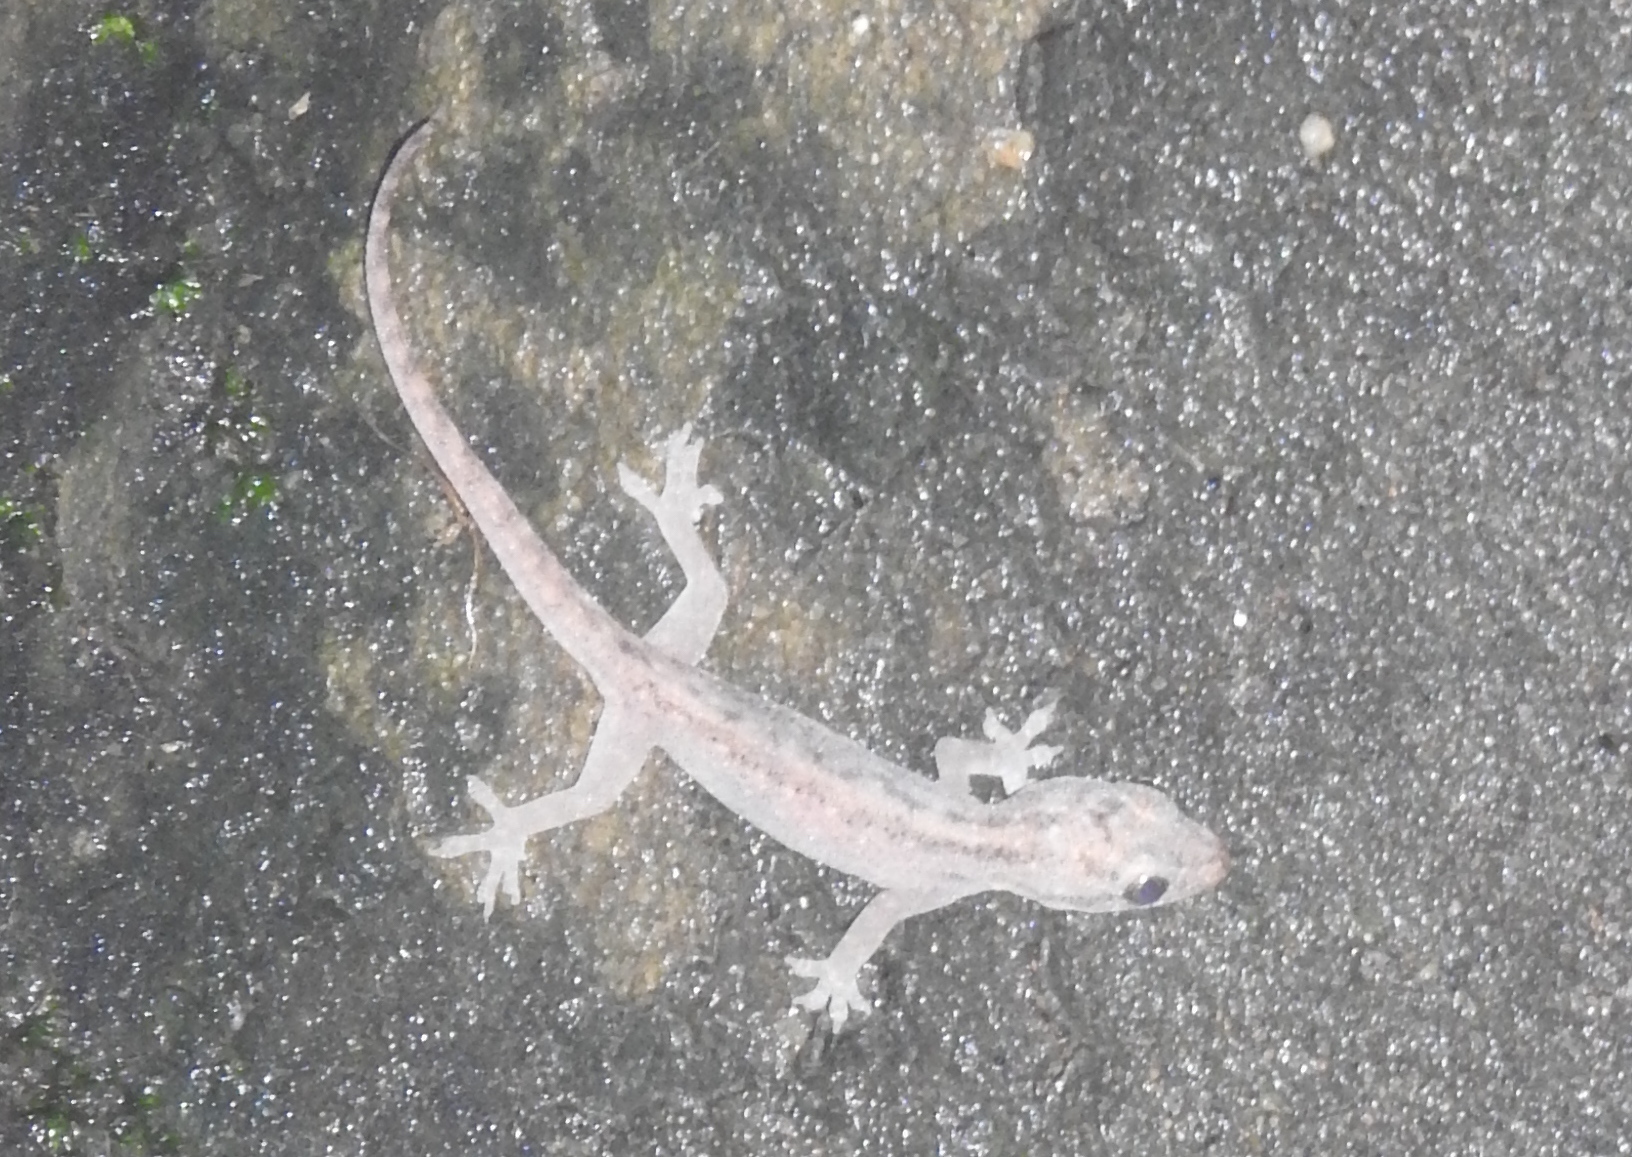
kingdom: Animalia
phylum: Chordata
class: Squamata
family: Gekkonidae
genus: Hemidactylus
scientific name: Hemidactylus frenatus
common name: Common house gecko
